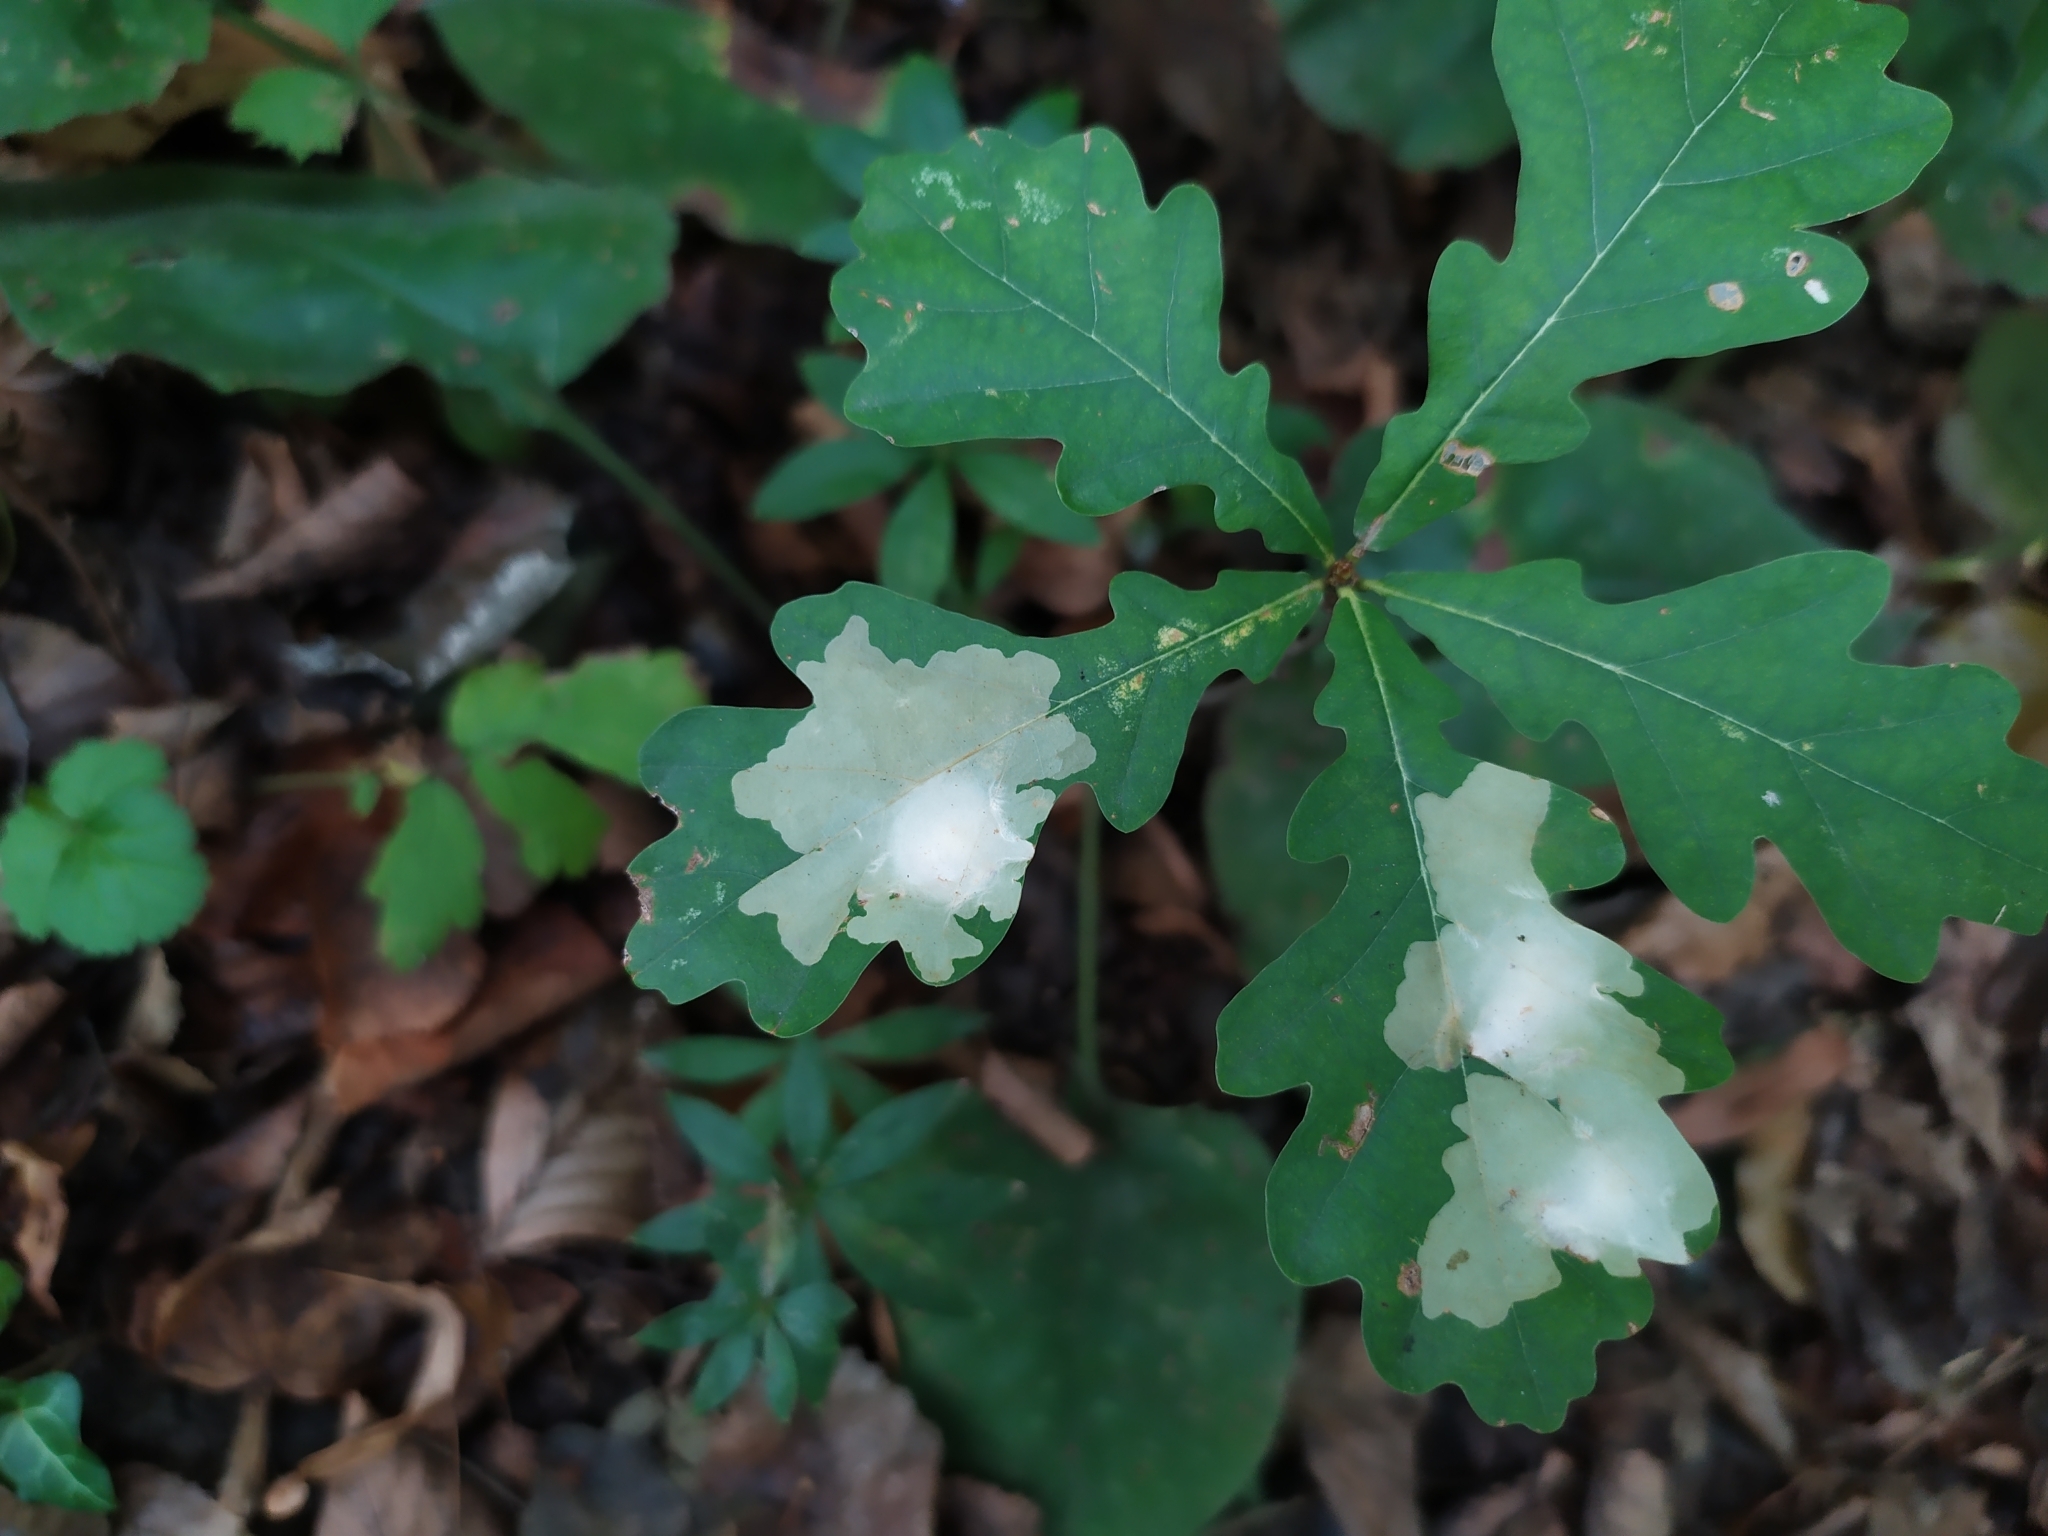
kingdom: Animalia
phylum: Arthropoda
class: Insecta
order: Lepidoptera
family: Tischeriidae
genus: Tischeria
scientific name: Tischeria ekebladella
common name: Oak carl
